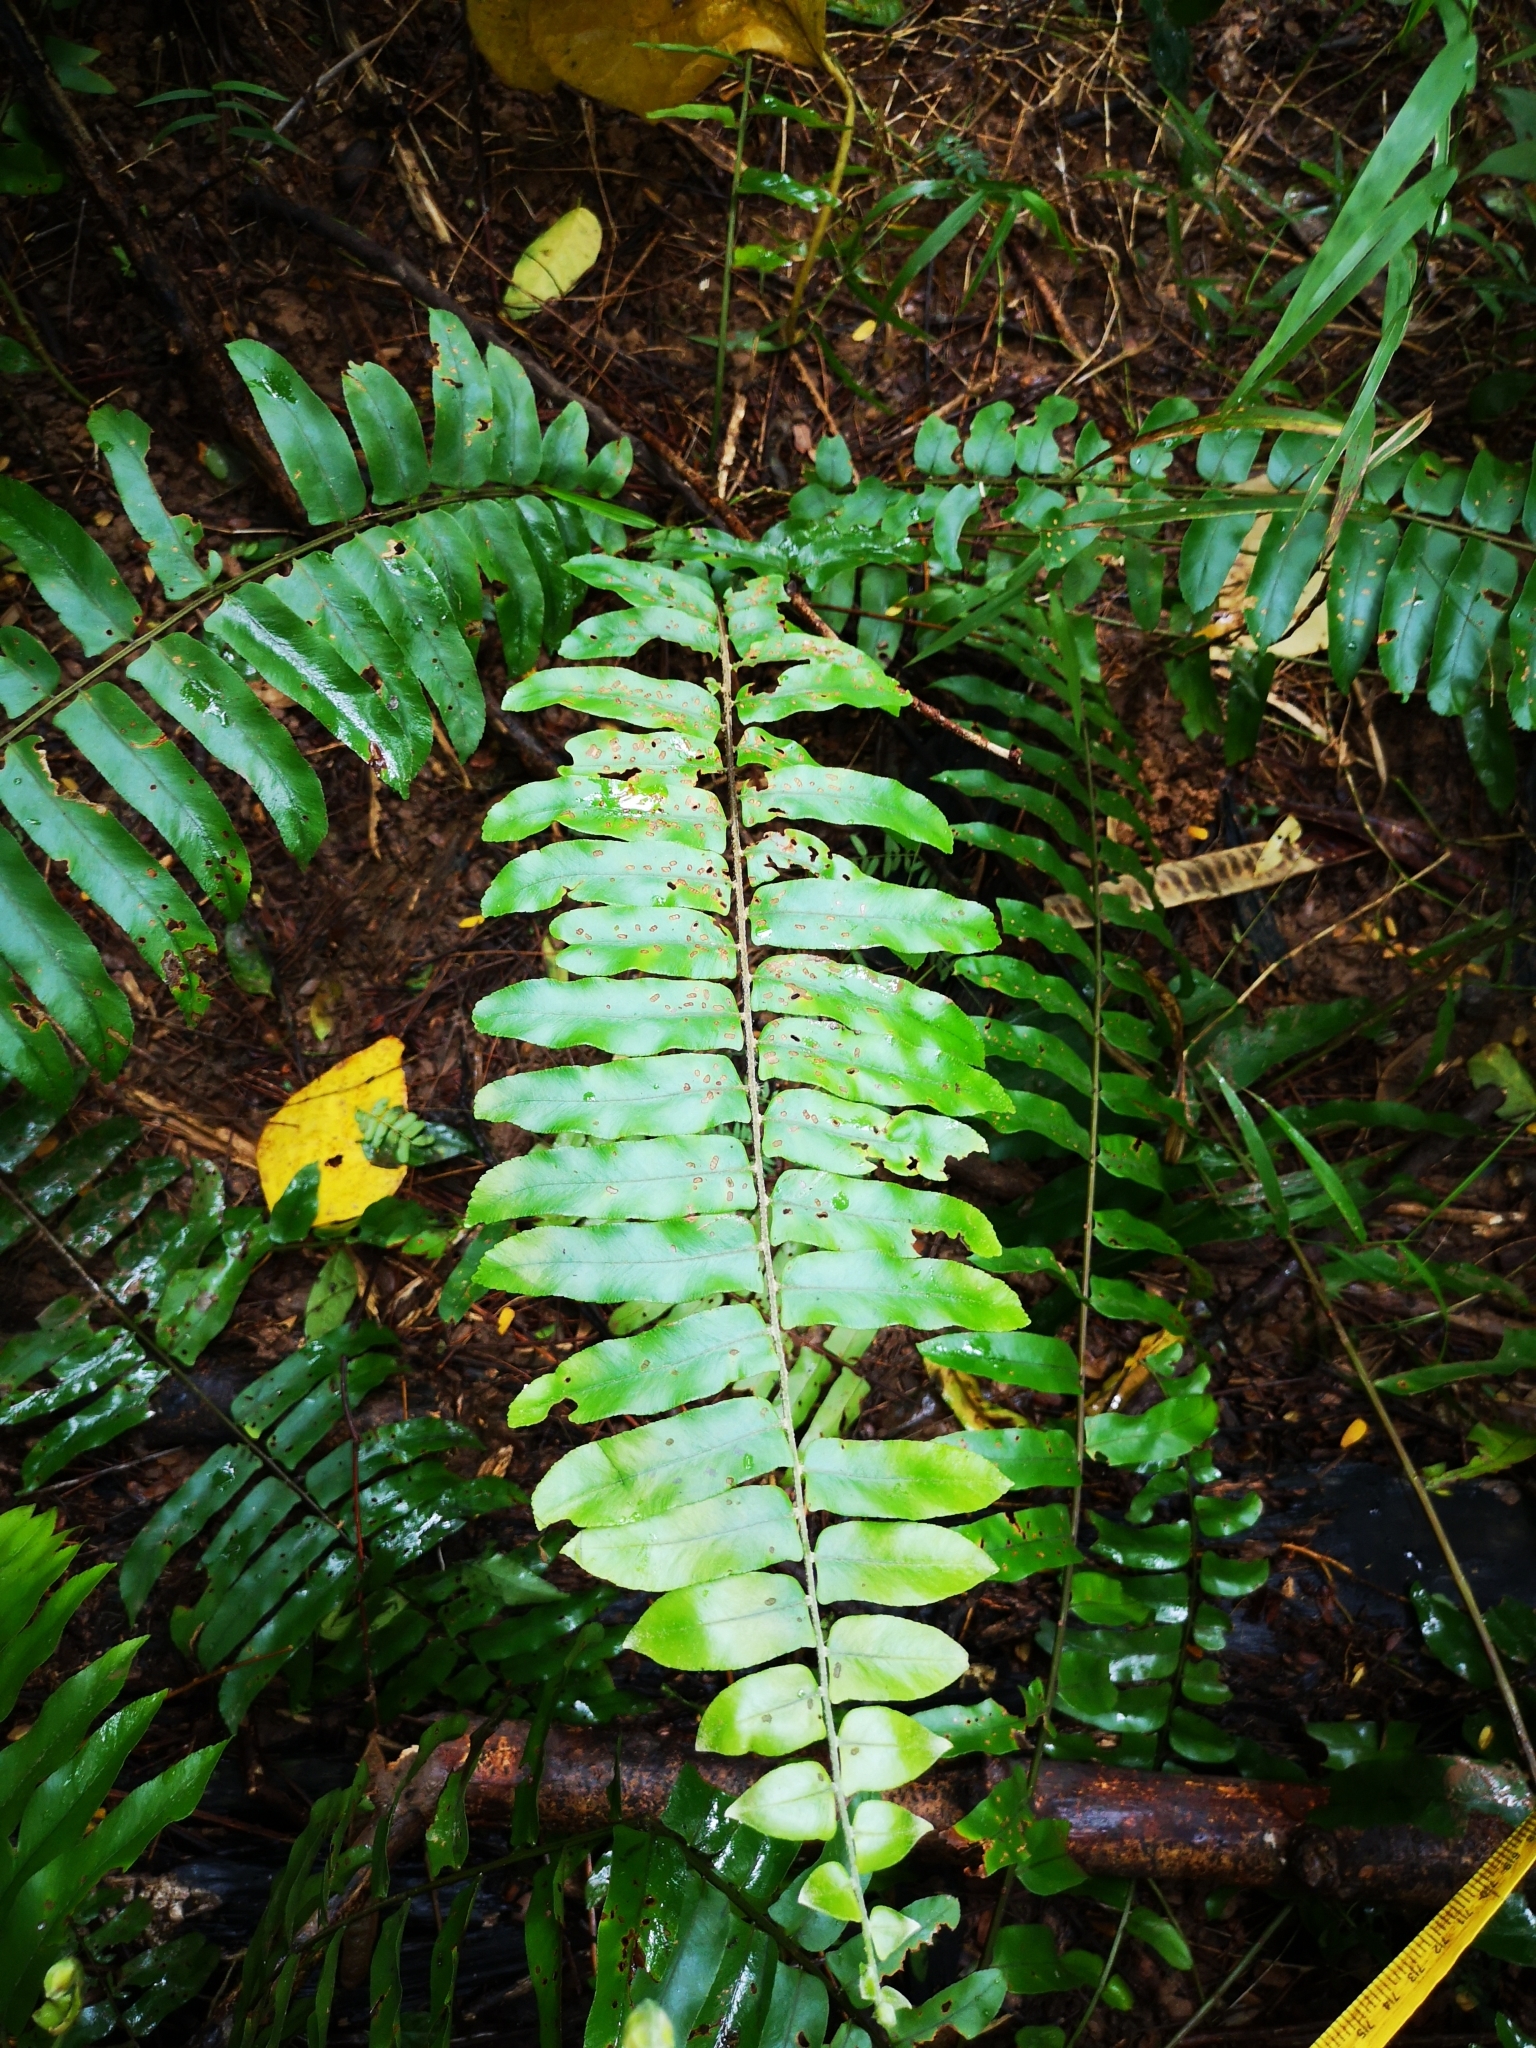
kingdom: Plantae
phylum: Tracheophyta
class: Polypodiopsida
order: Polypodiales
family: Nephrolepidaceae
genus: Nephrolepis
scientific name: Nephrolepis biserrata
